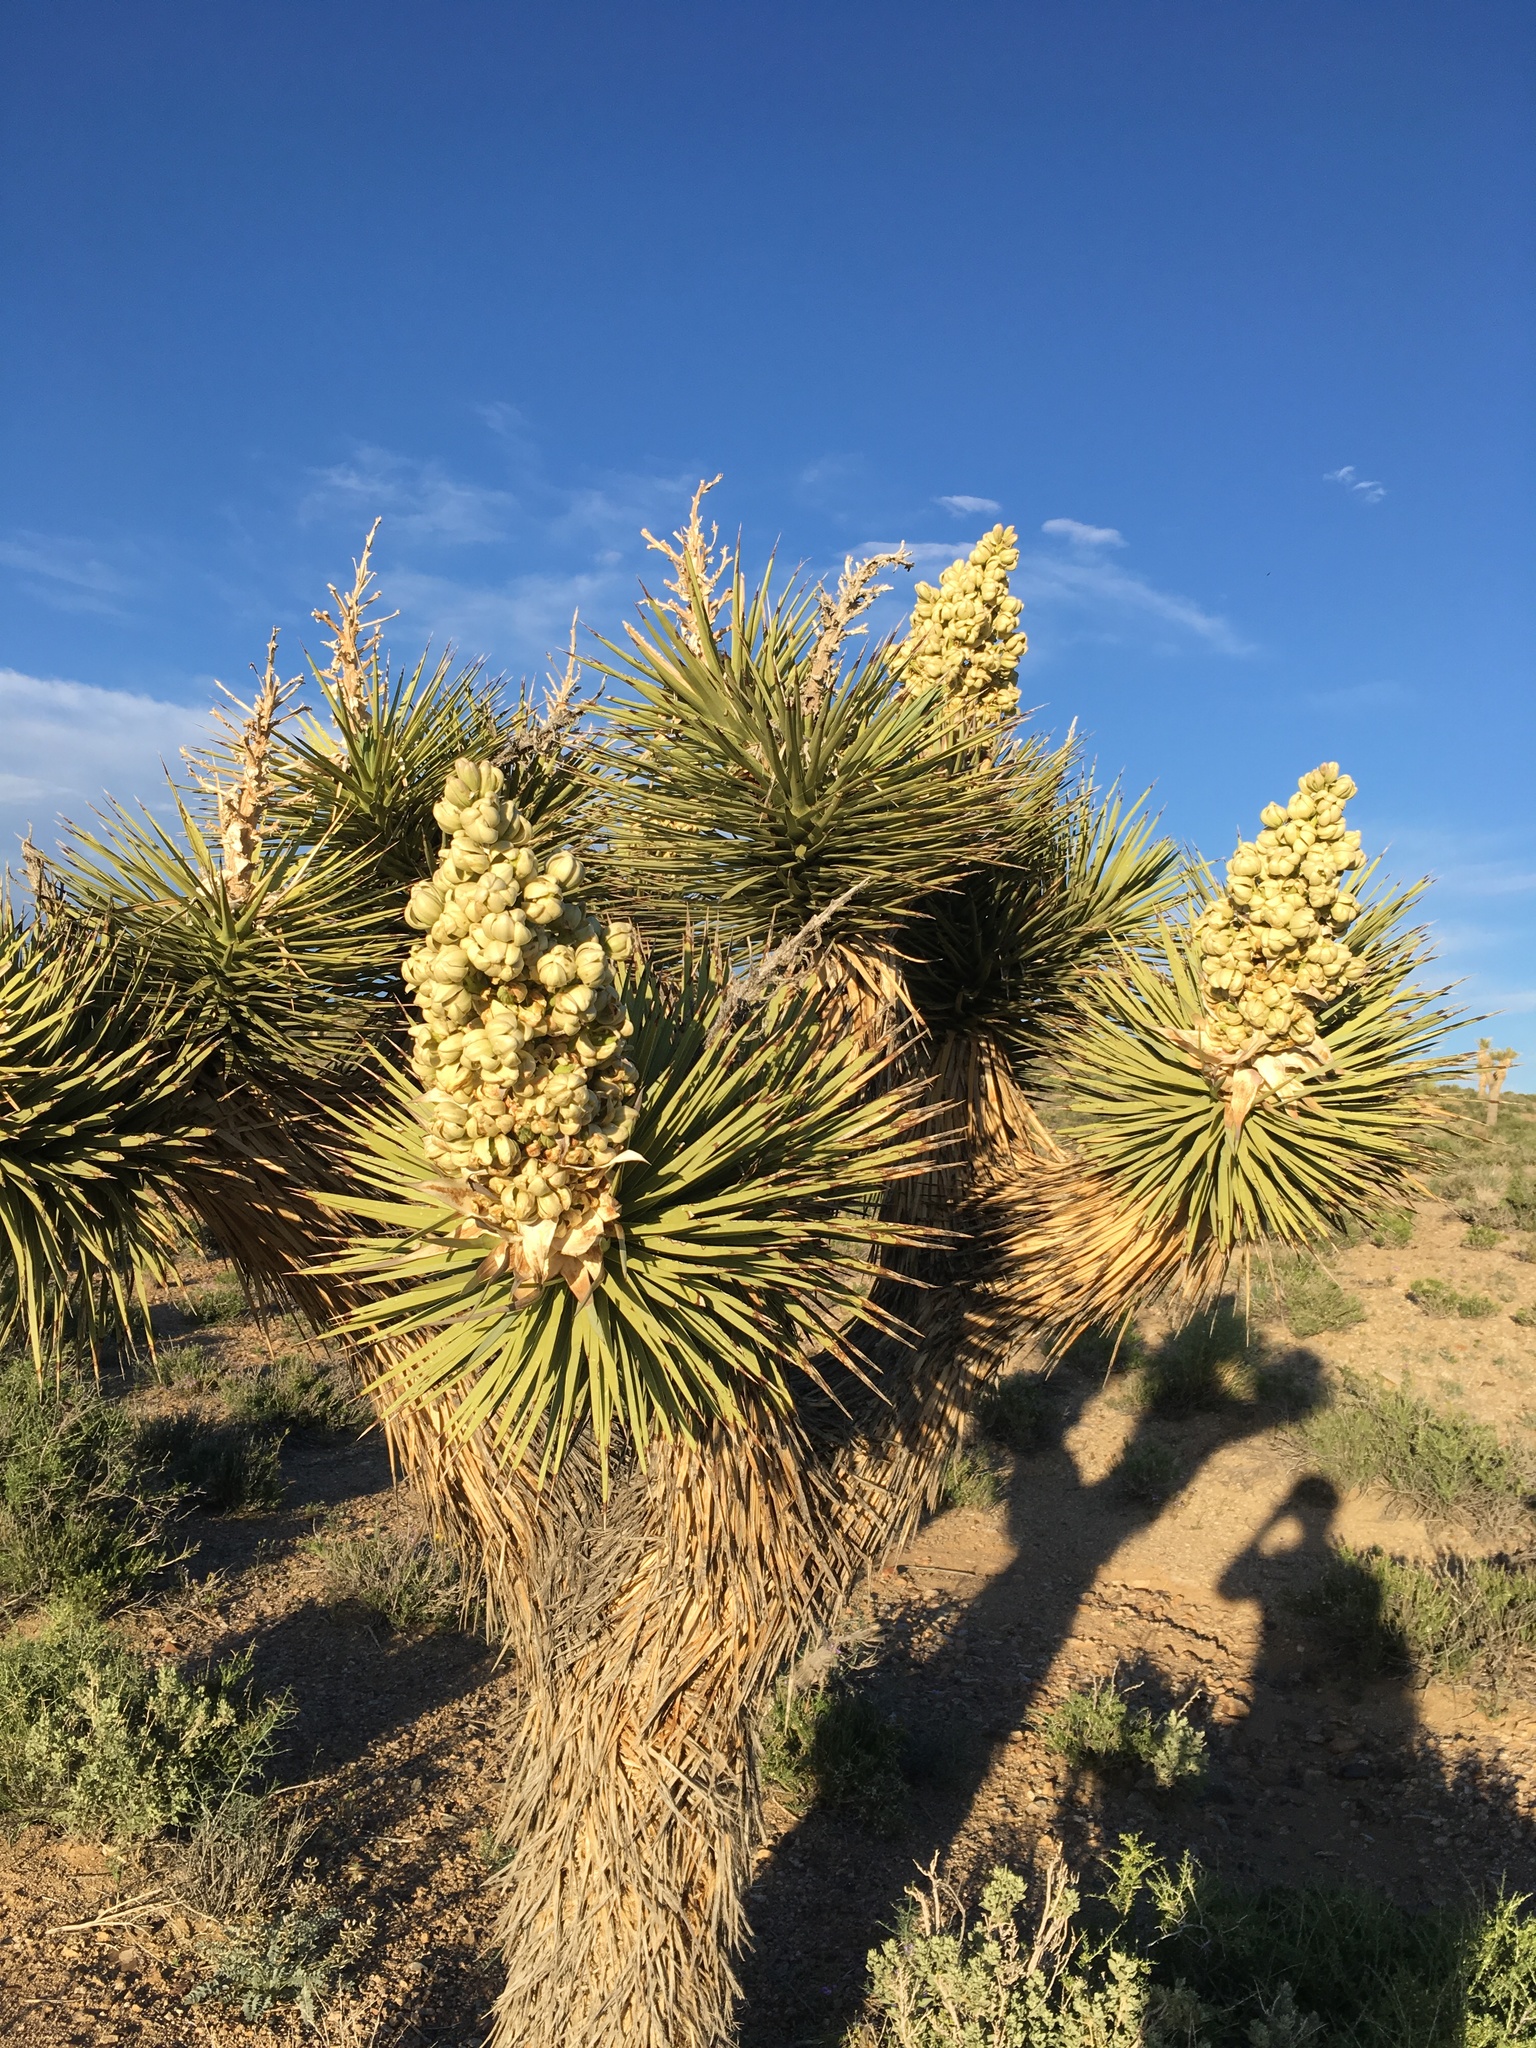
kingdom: Plantae
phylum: Tracheophyta
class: Liliopsida
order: Asparagales
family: Asparagaceae
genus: Yucca
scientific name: Yucca brevifolia
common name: Joshua tree
